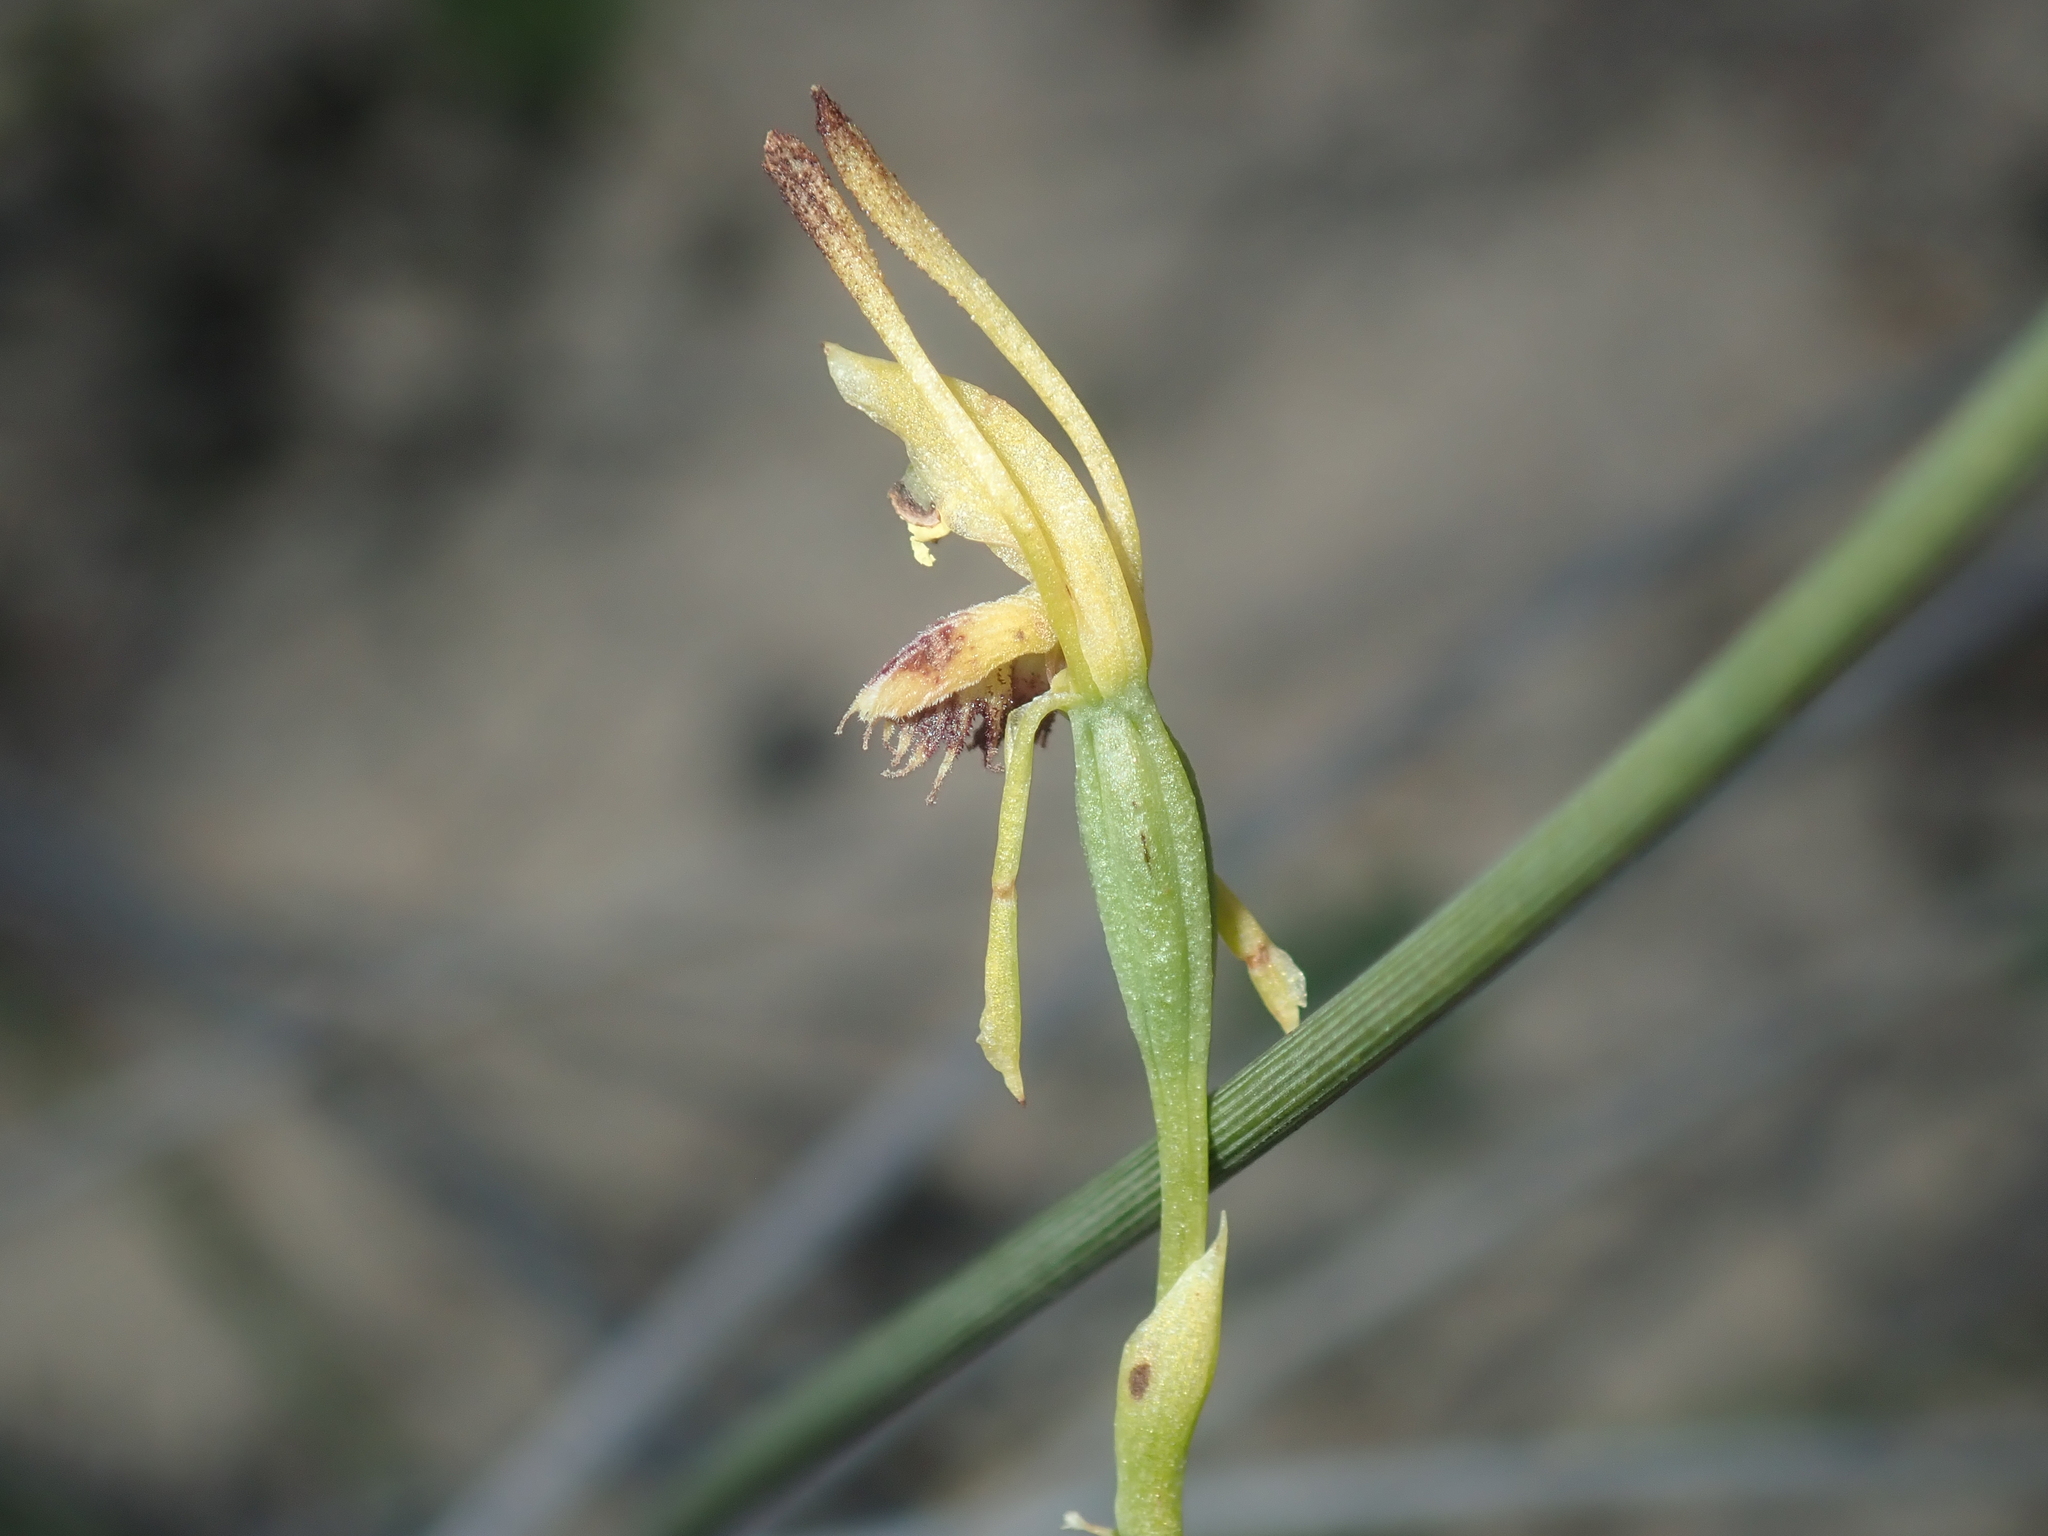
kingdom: Plantae
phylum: Tracheophyta
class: Liliopsida
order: Asparagales
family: Orchidaceae
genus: Leporella
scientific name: Leporella fimbriata
